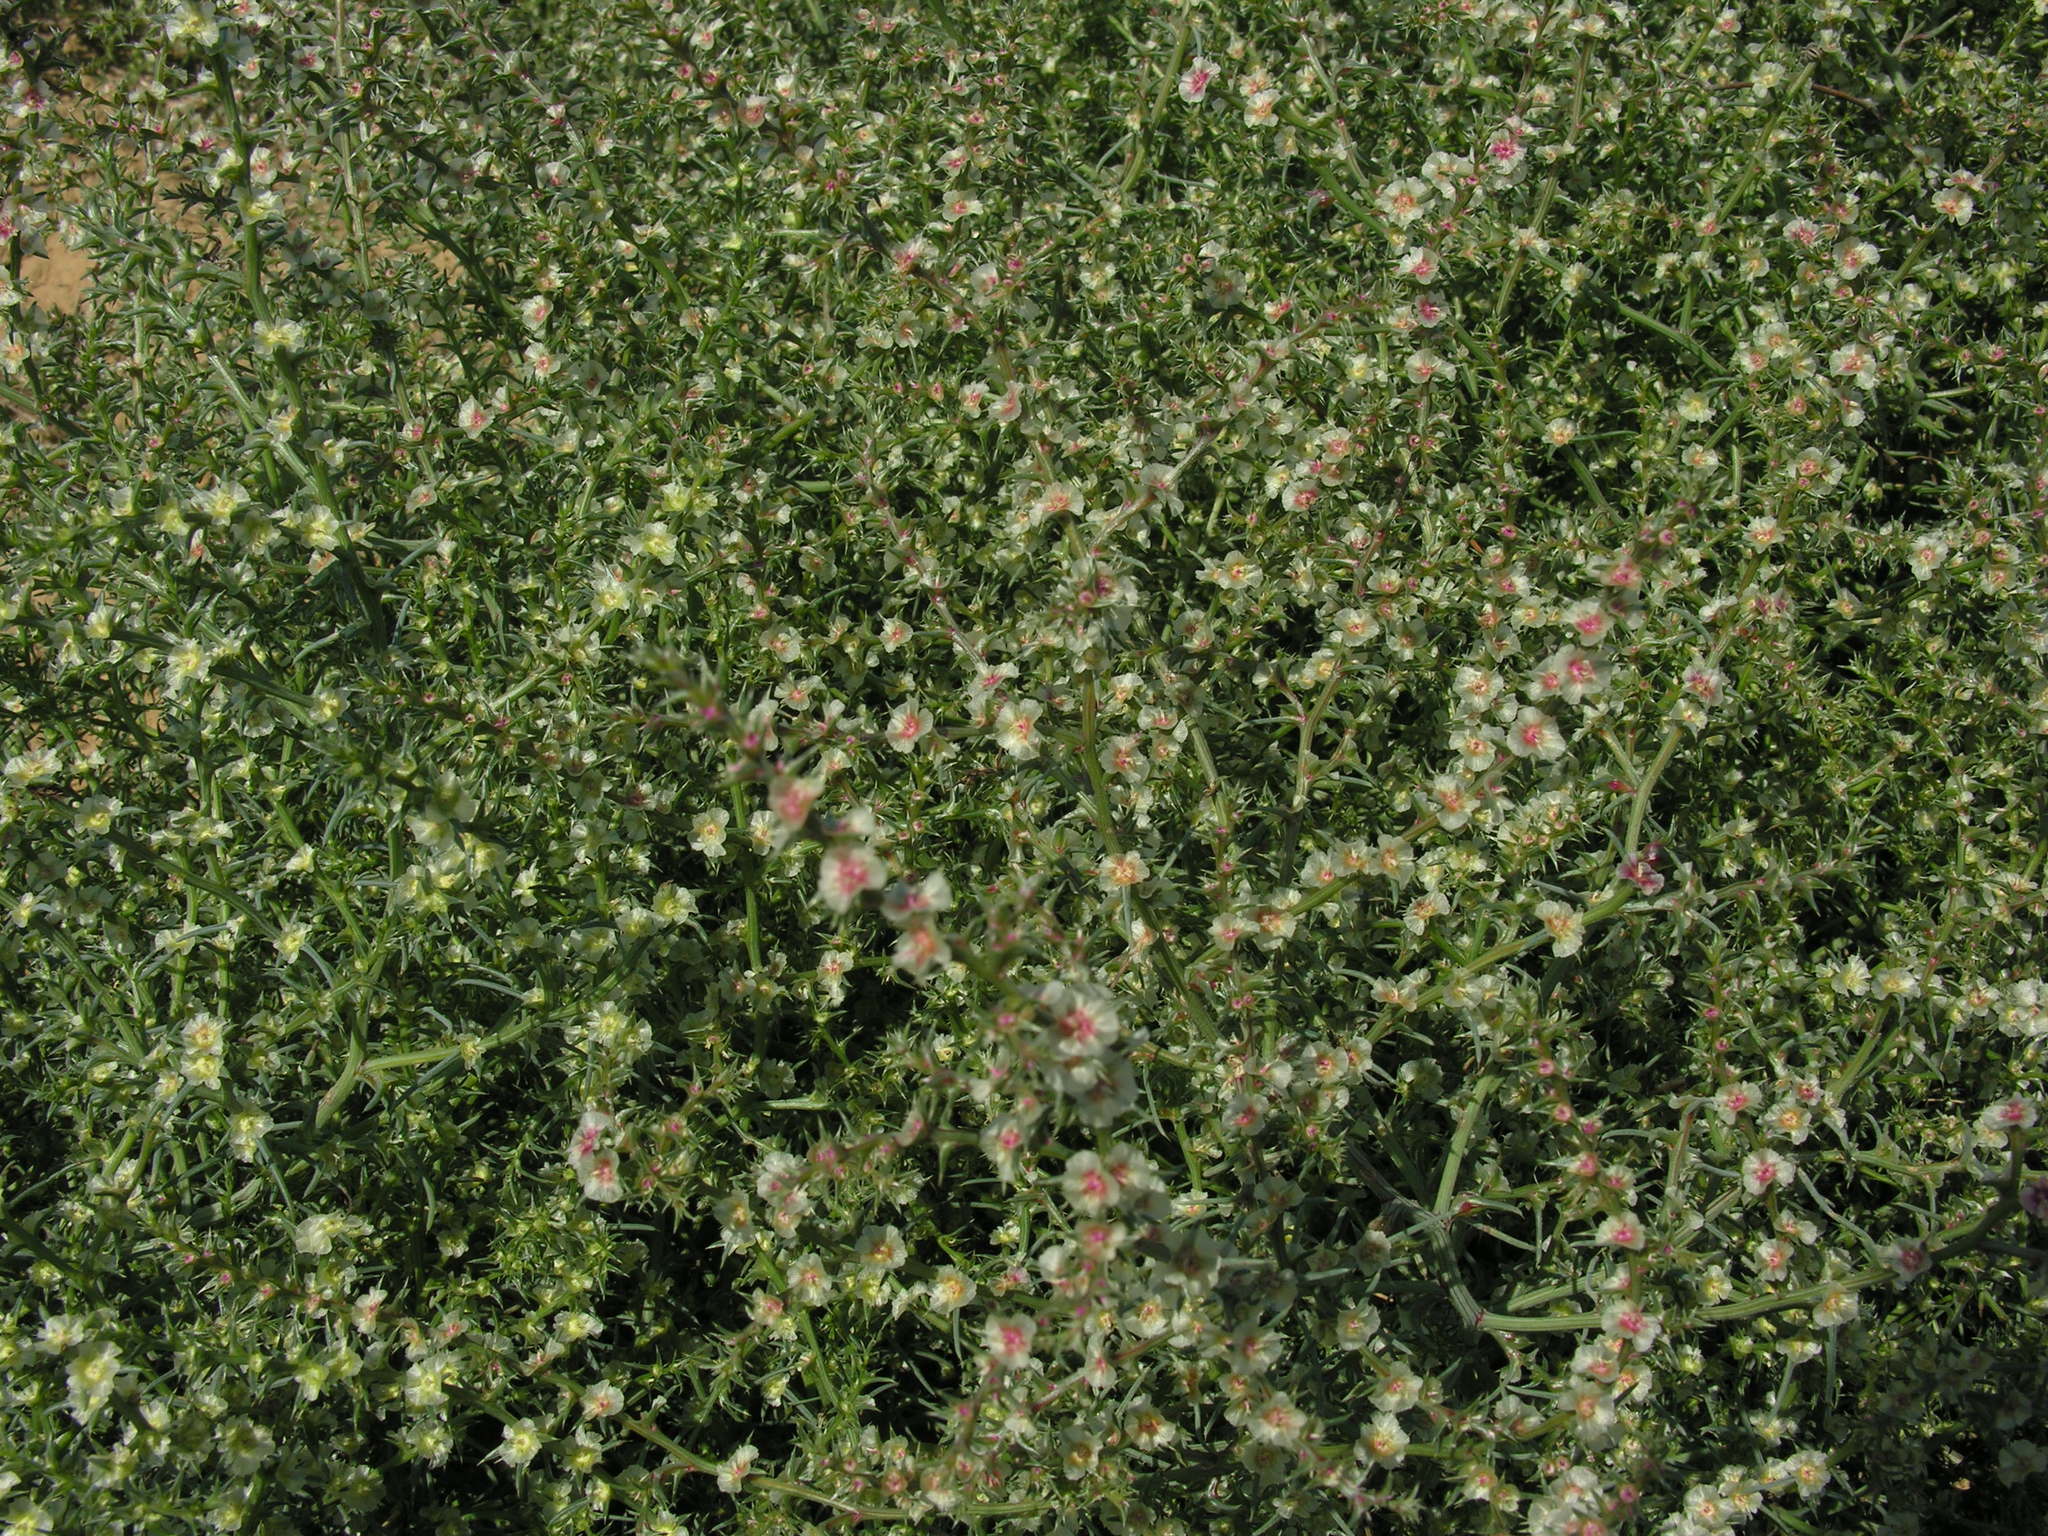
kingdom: Plantae
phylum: Tracheophyta
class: Magnoliopsida
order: Caryophyllales
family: Amaranthaceae
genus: Salsola
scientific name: Salsola tragus
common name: Prickly russian thistle
